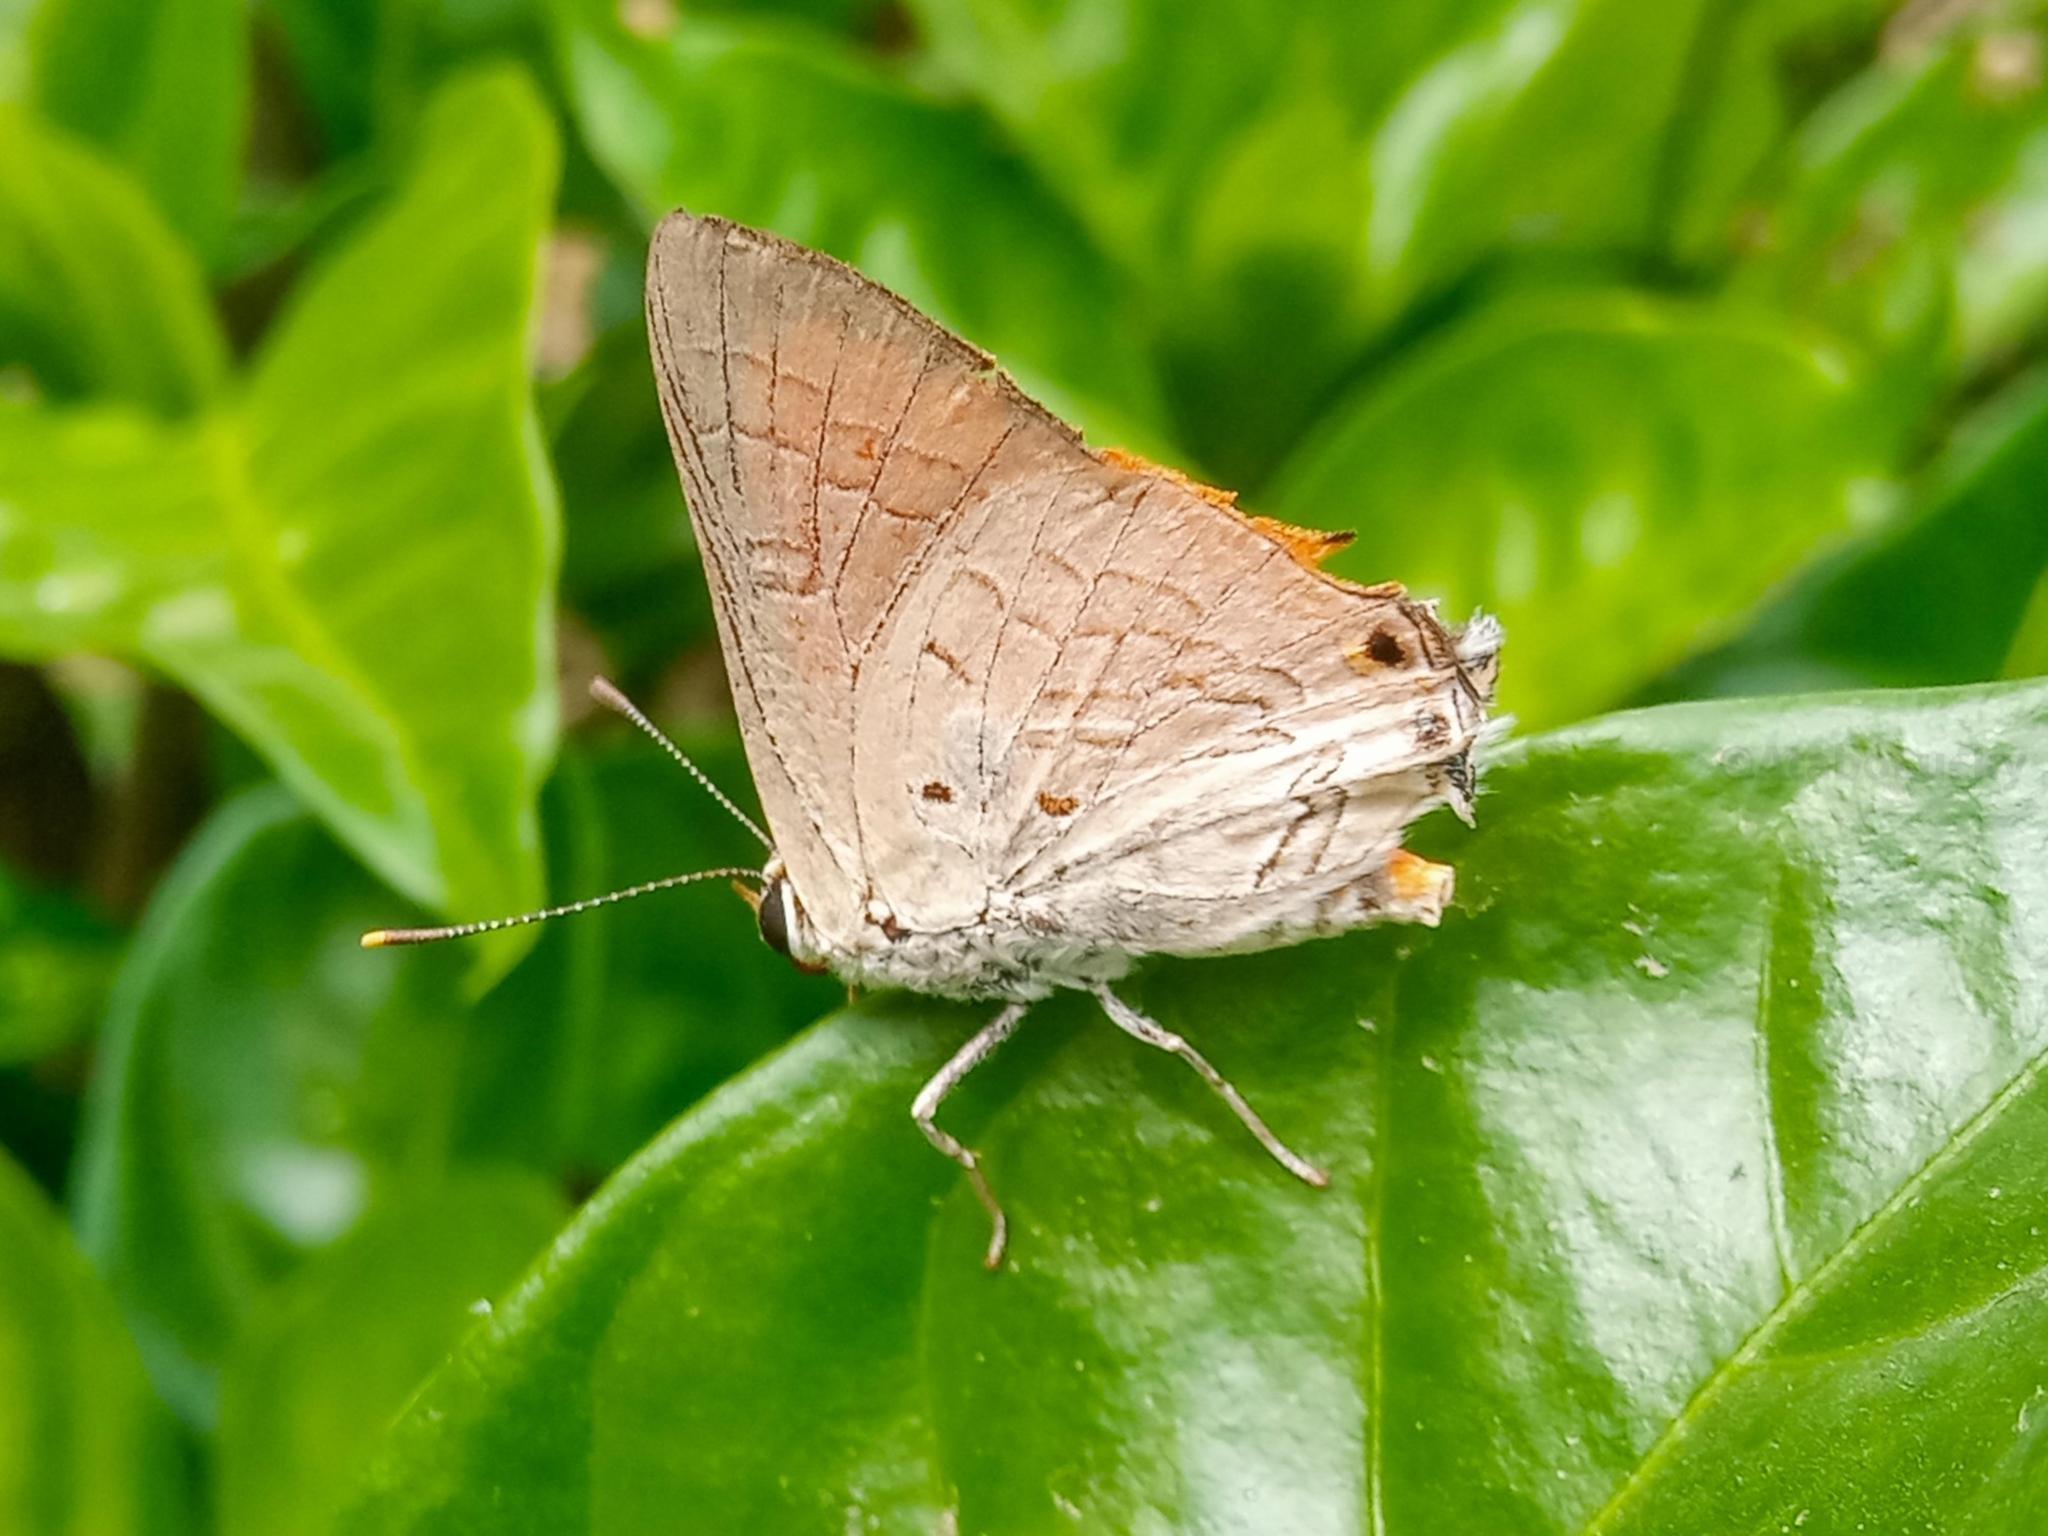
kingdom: Animalia
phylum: Arthropoda
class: Insecta
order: Lepidoptera
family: Lycaenidae
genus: Deudorix
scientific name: Deudorix livia
